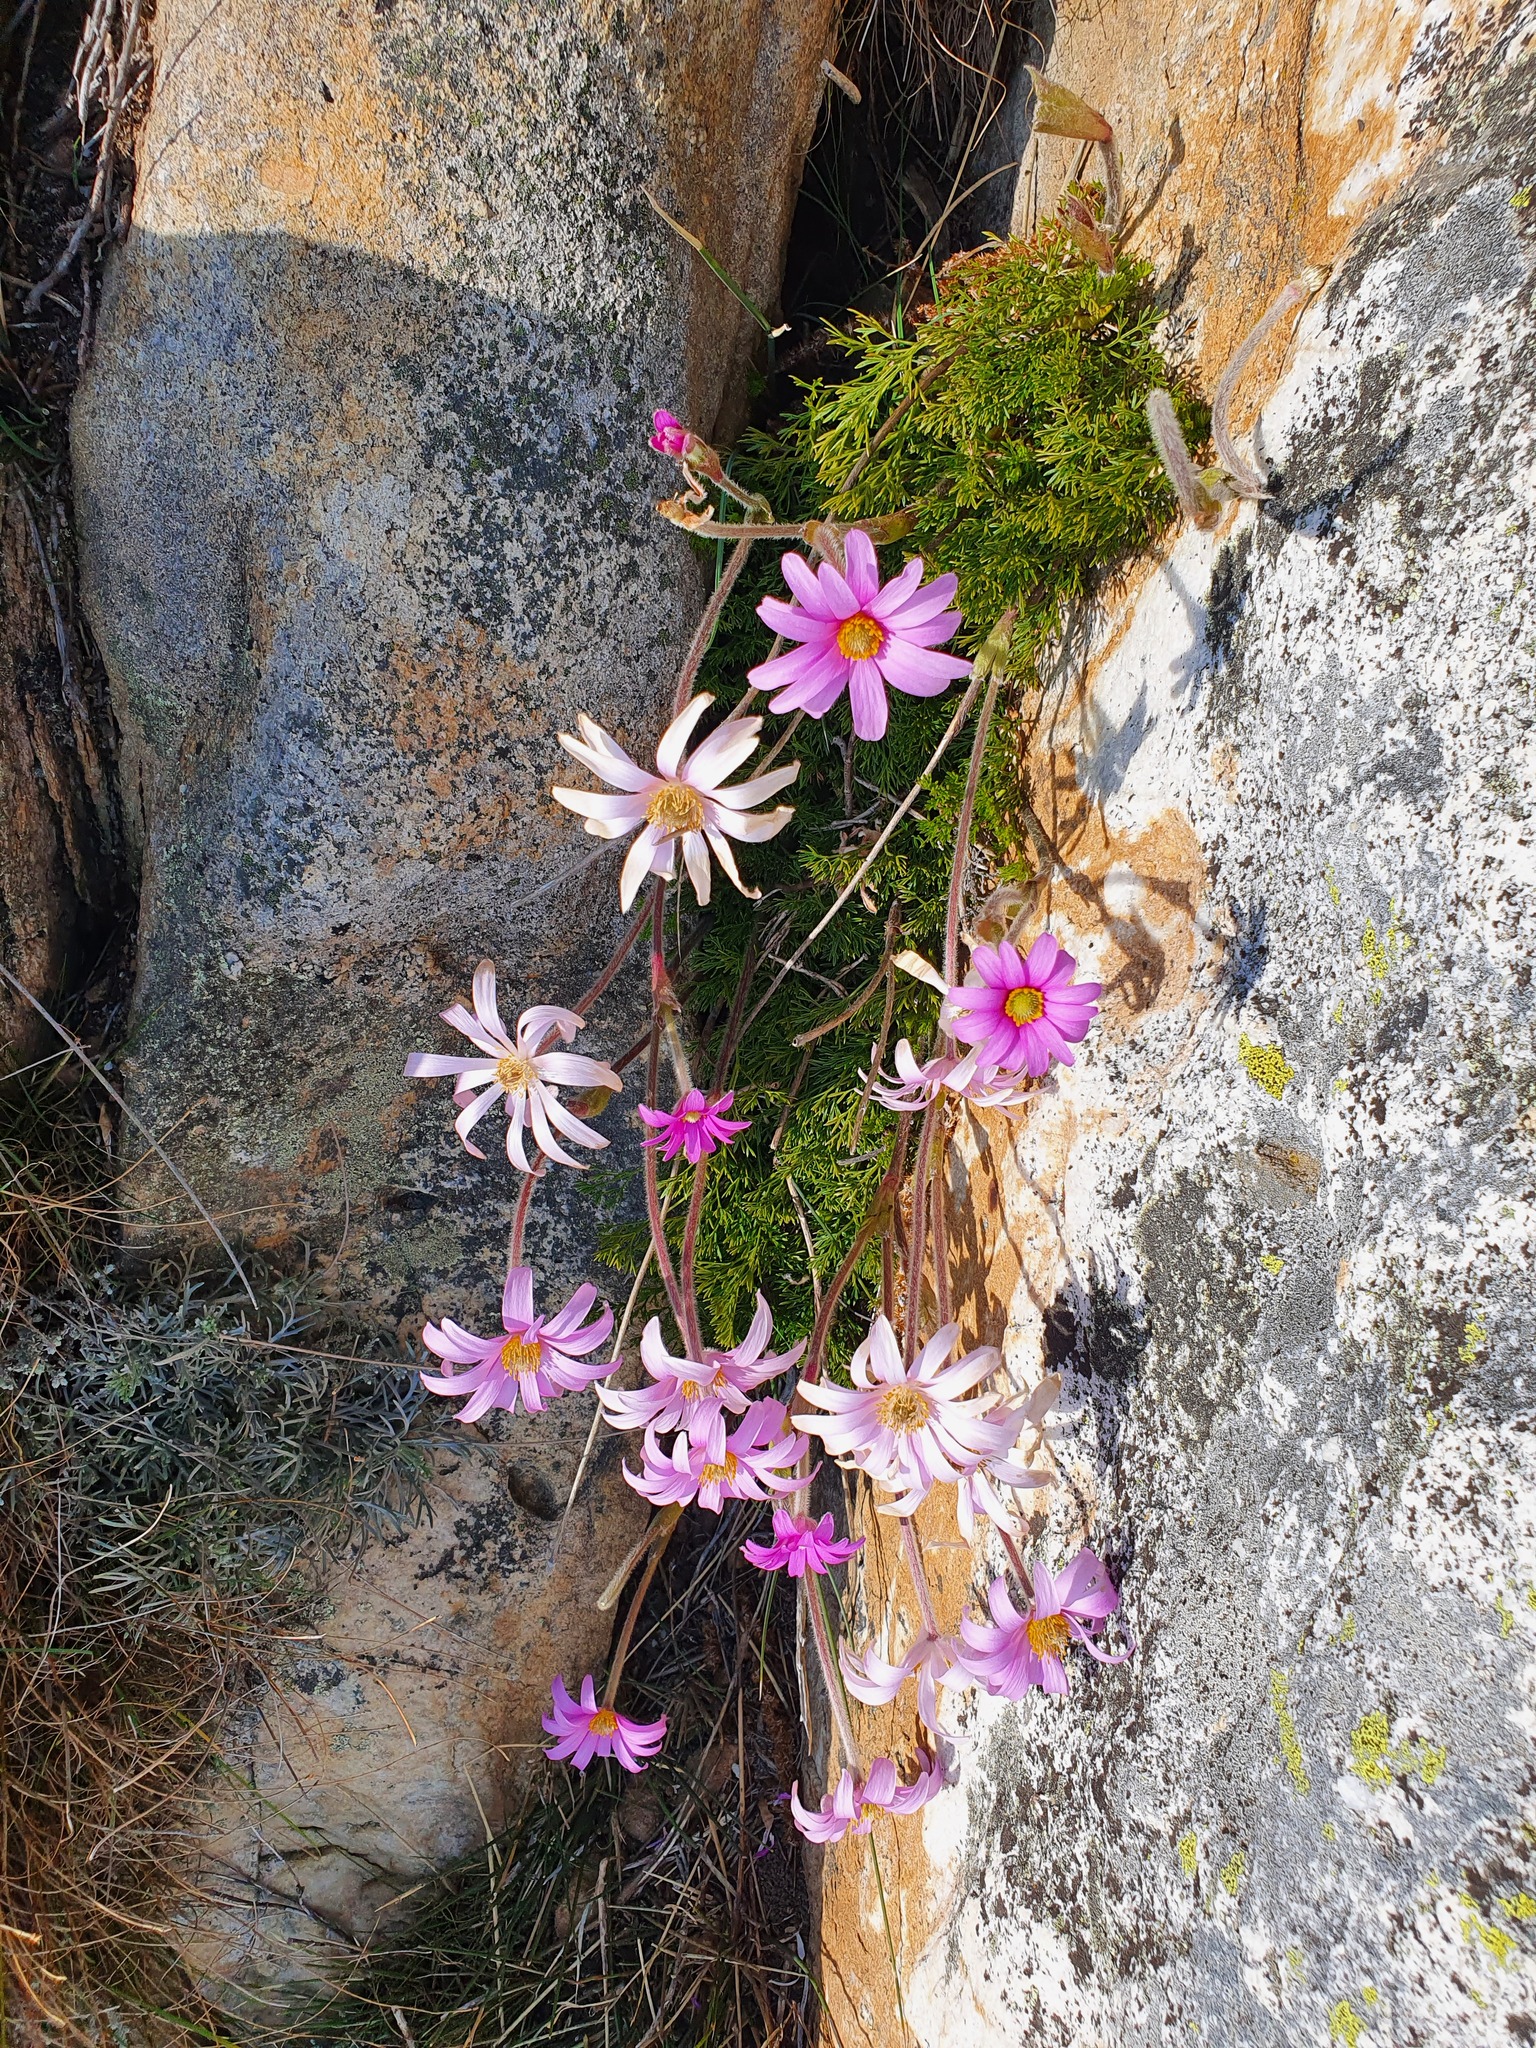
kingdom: Plantae
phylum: Tracheophyta
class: Magnoliopsida
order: Ranunculales
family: Ranunculaceae
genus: Knowltonia
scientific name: Knowltonia tenuifolia
